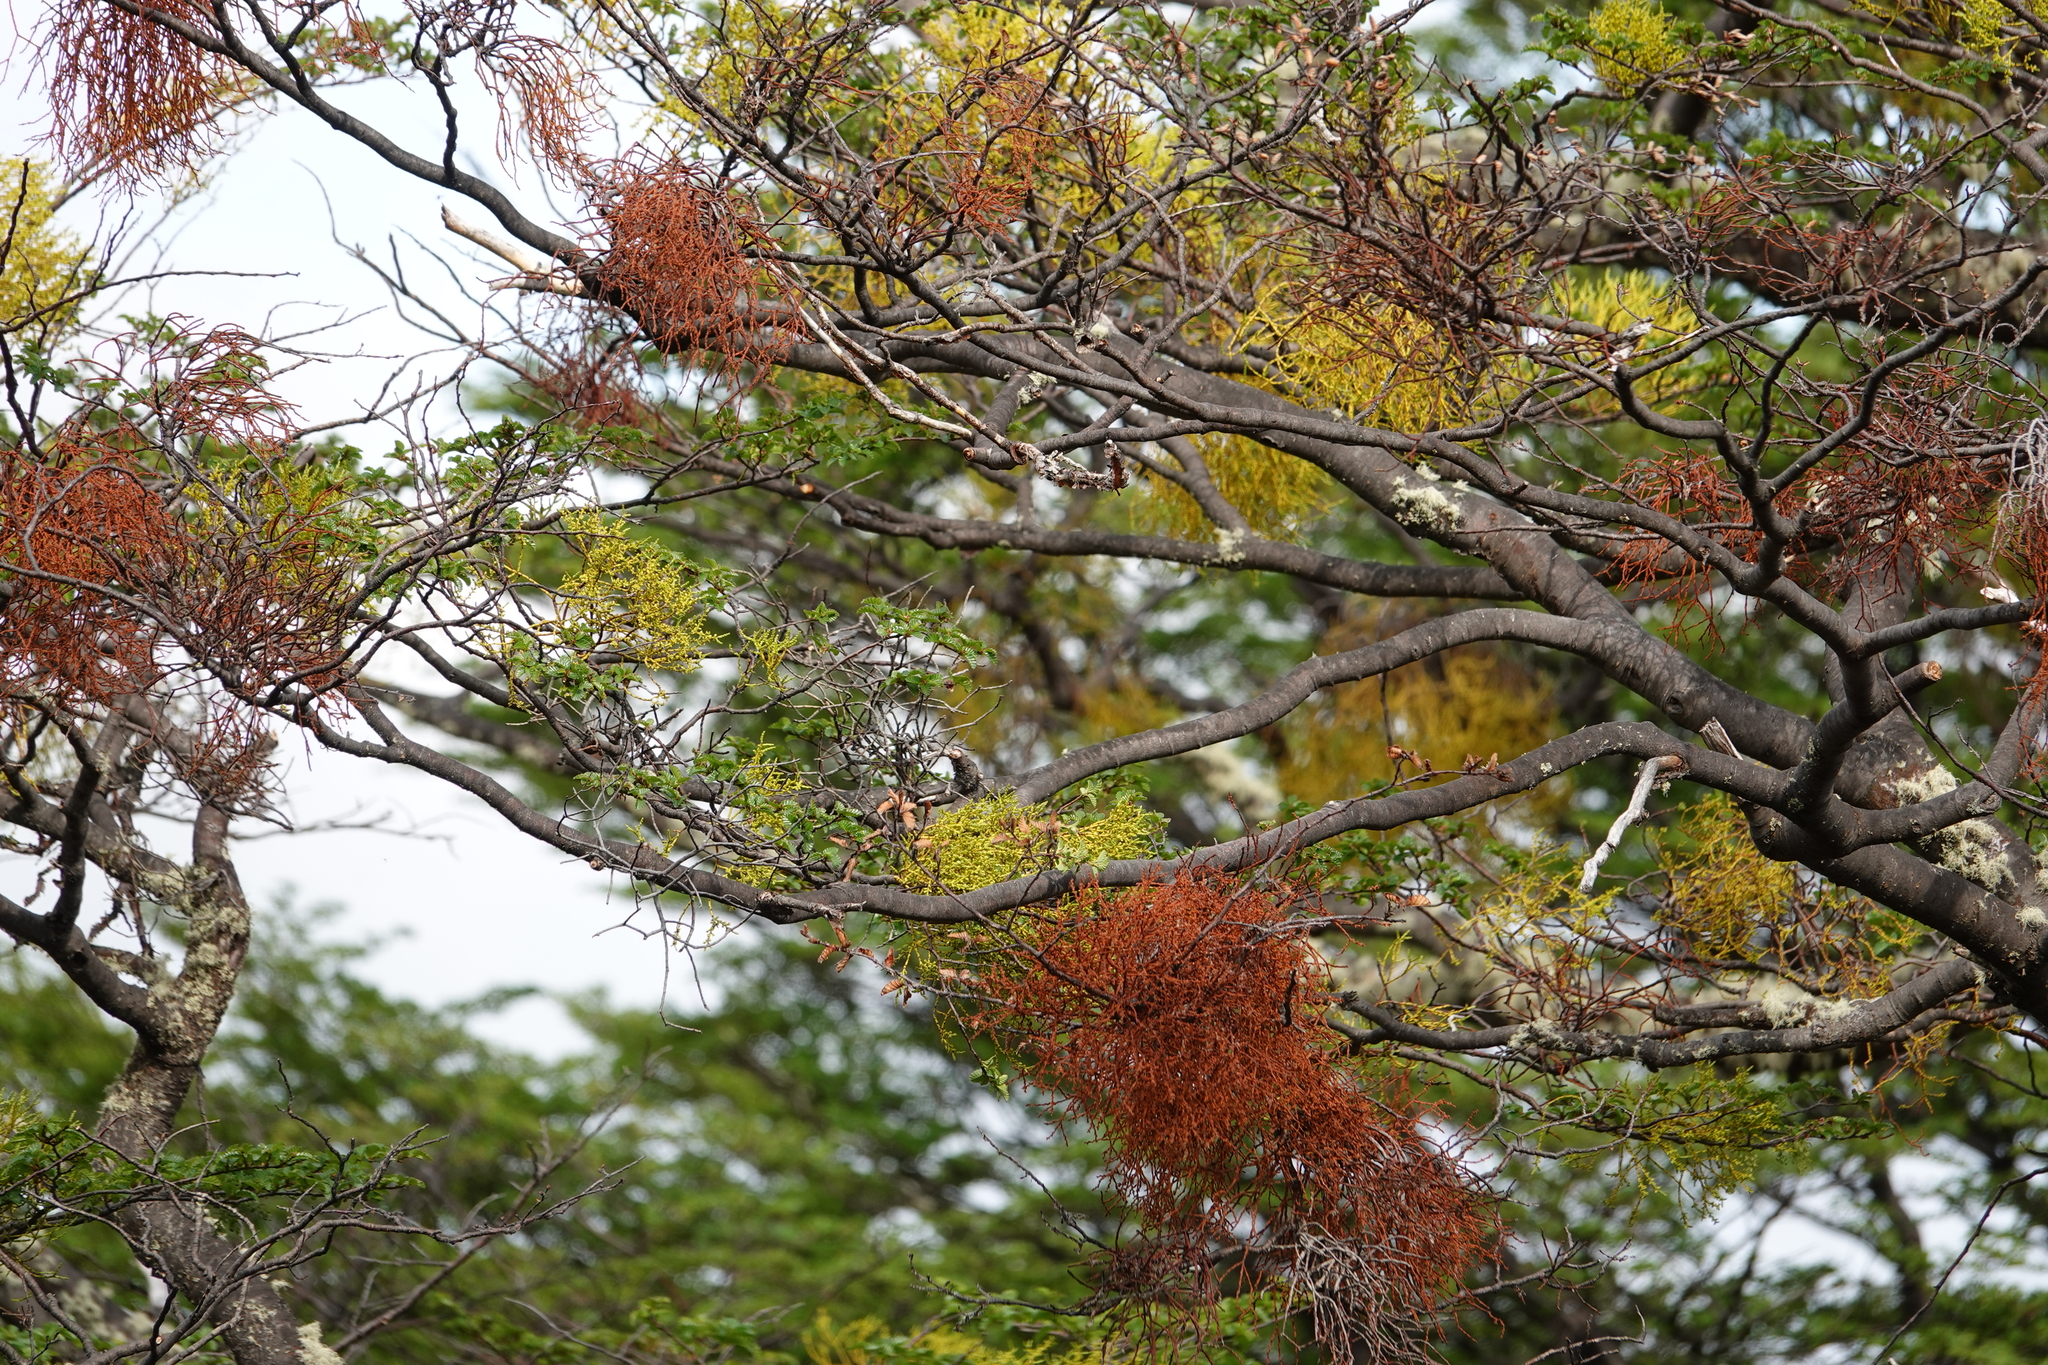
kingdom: Plantae
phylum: Tracheophyta
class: Magnoliopsida
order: Santalales
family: Misodendraceae
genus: Misodendrum
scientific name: Misodendrum punctulatum
